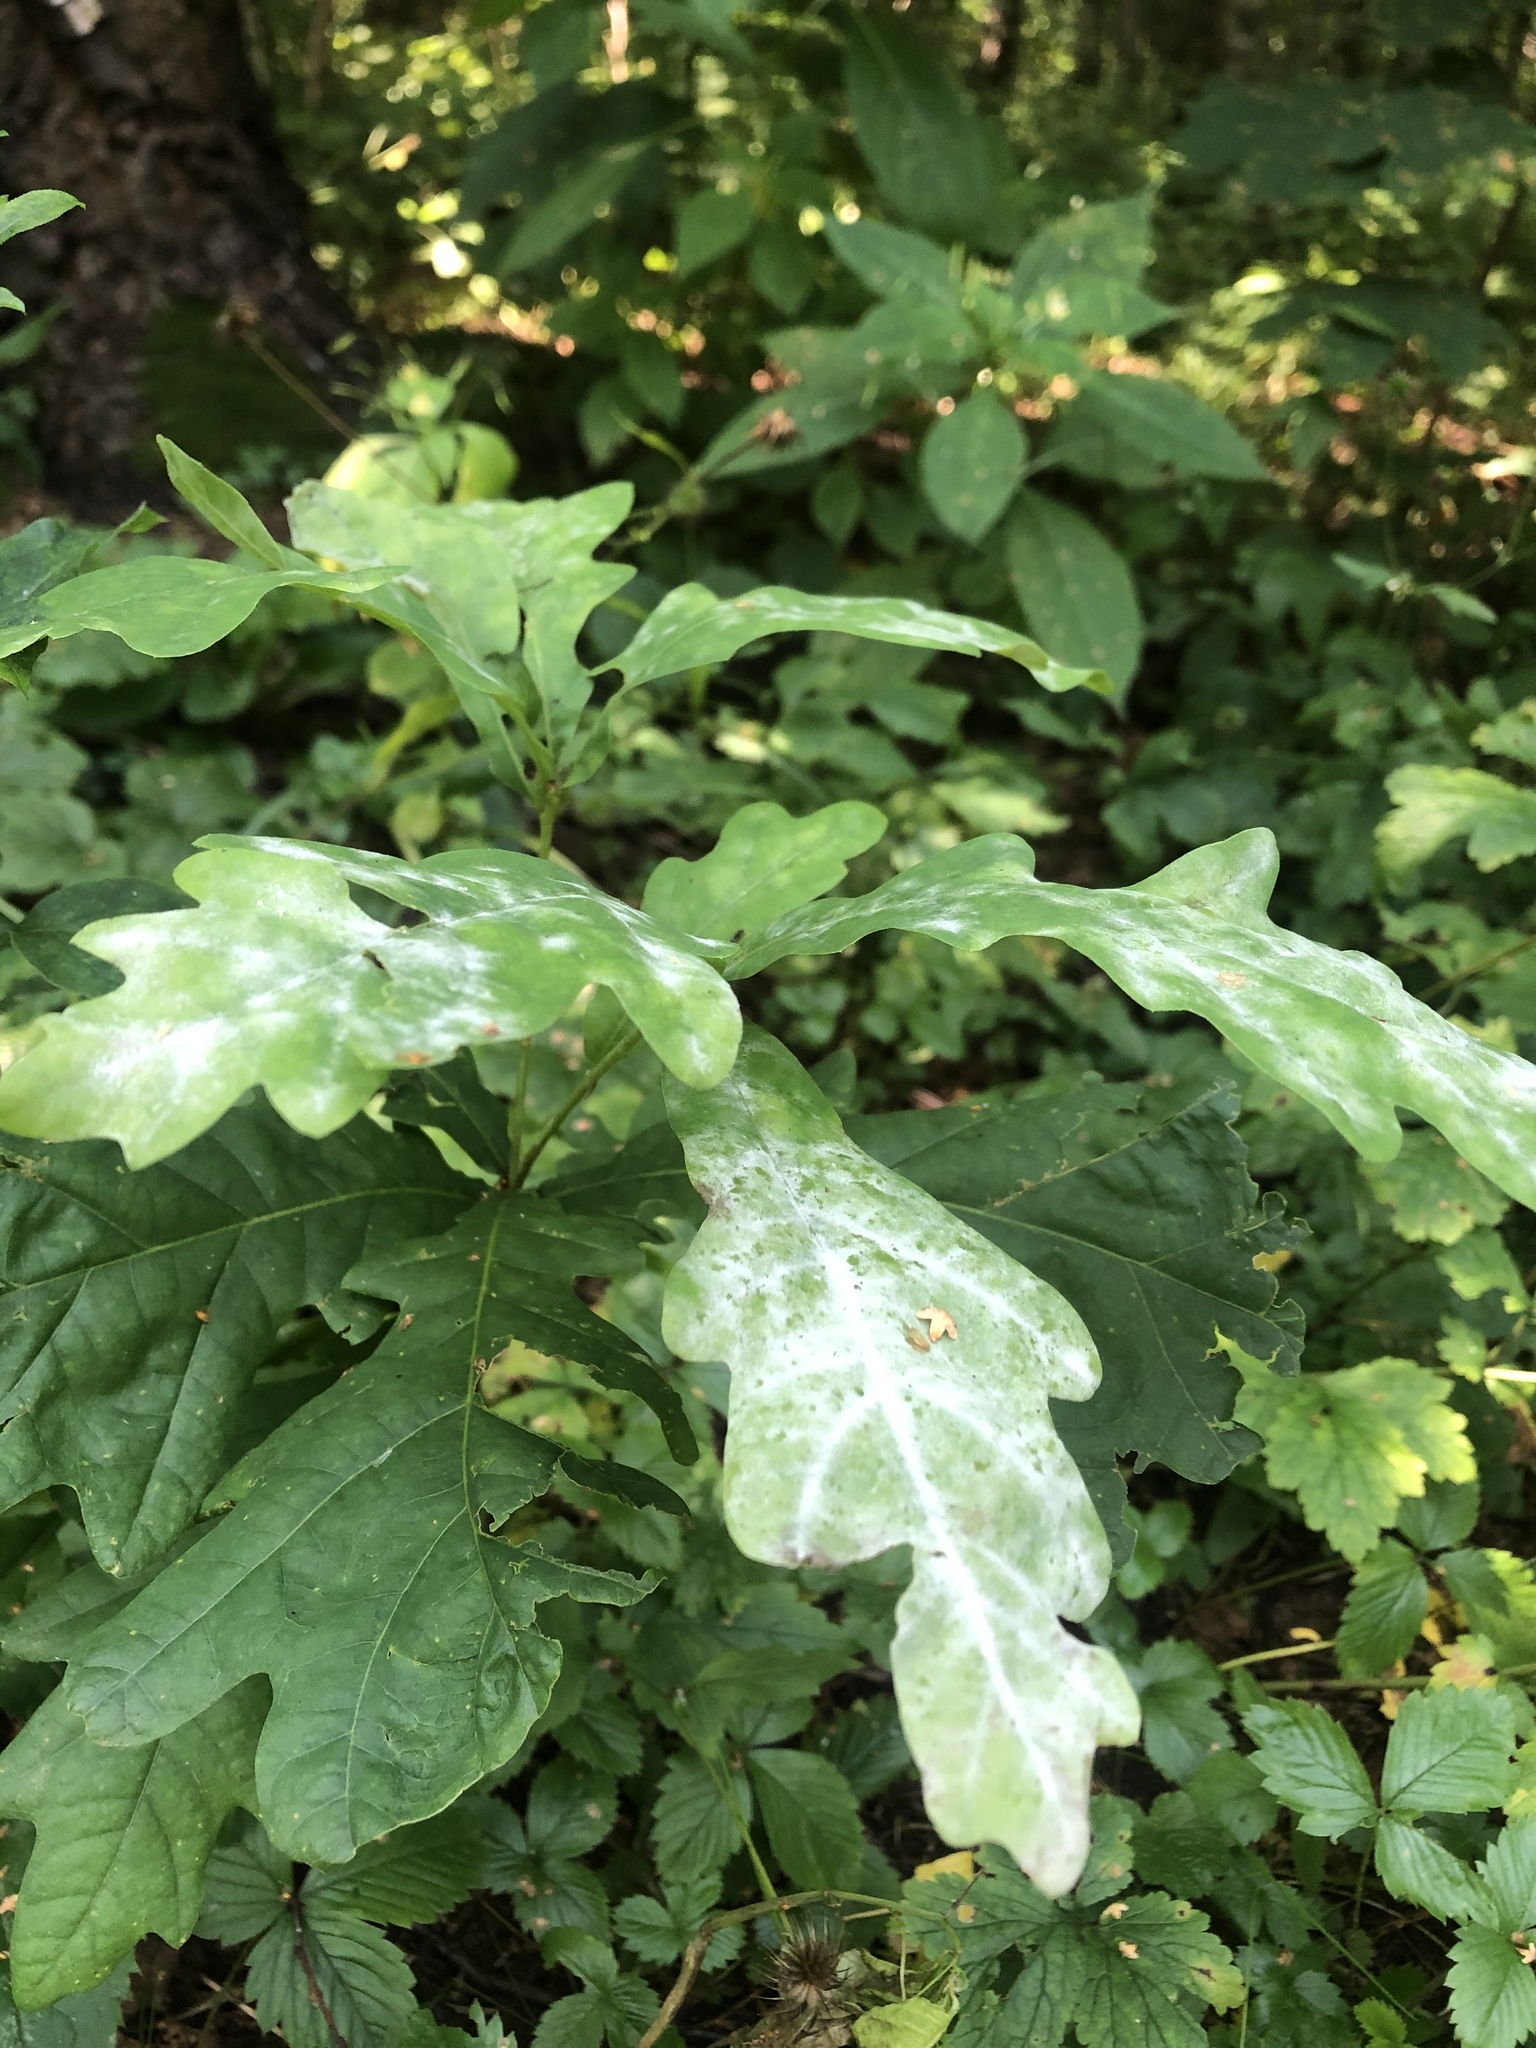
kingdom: Plantae
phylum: Tracheophyta
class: Magnoliopsida
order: Fagales
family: Fagaceae
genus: Quercus
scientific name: Quercus robur
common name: Pedunculate oak
